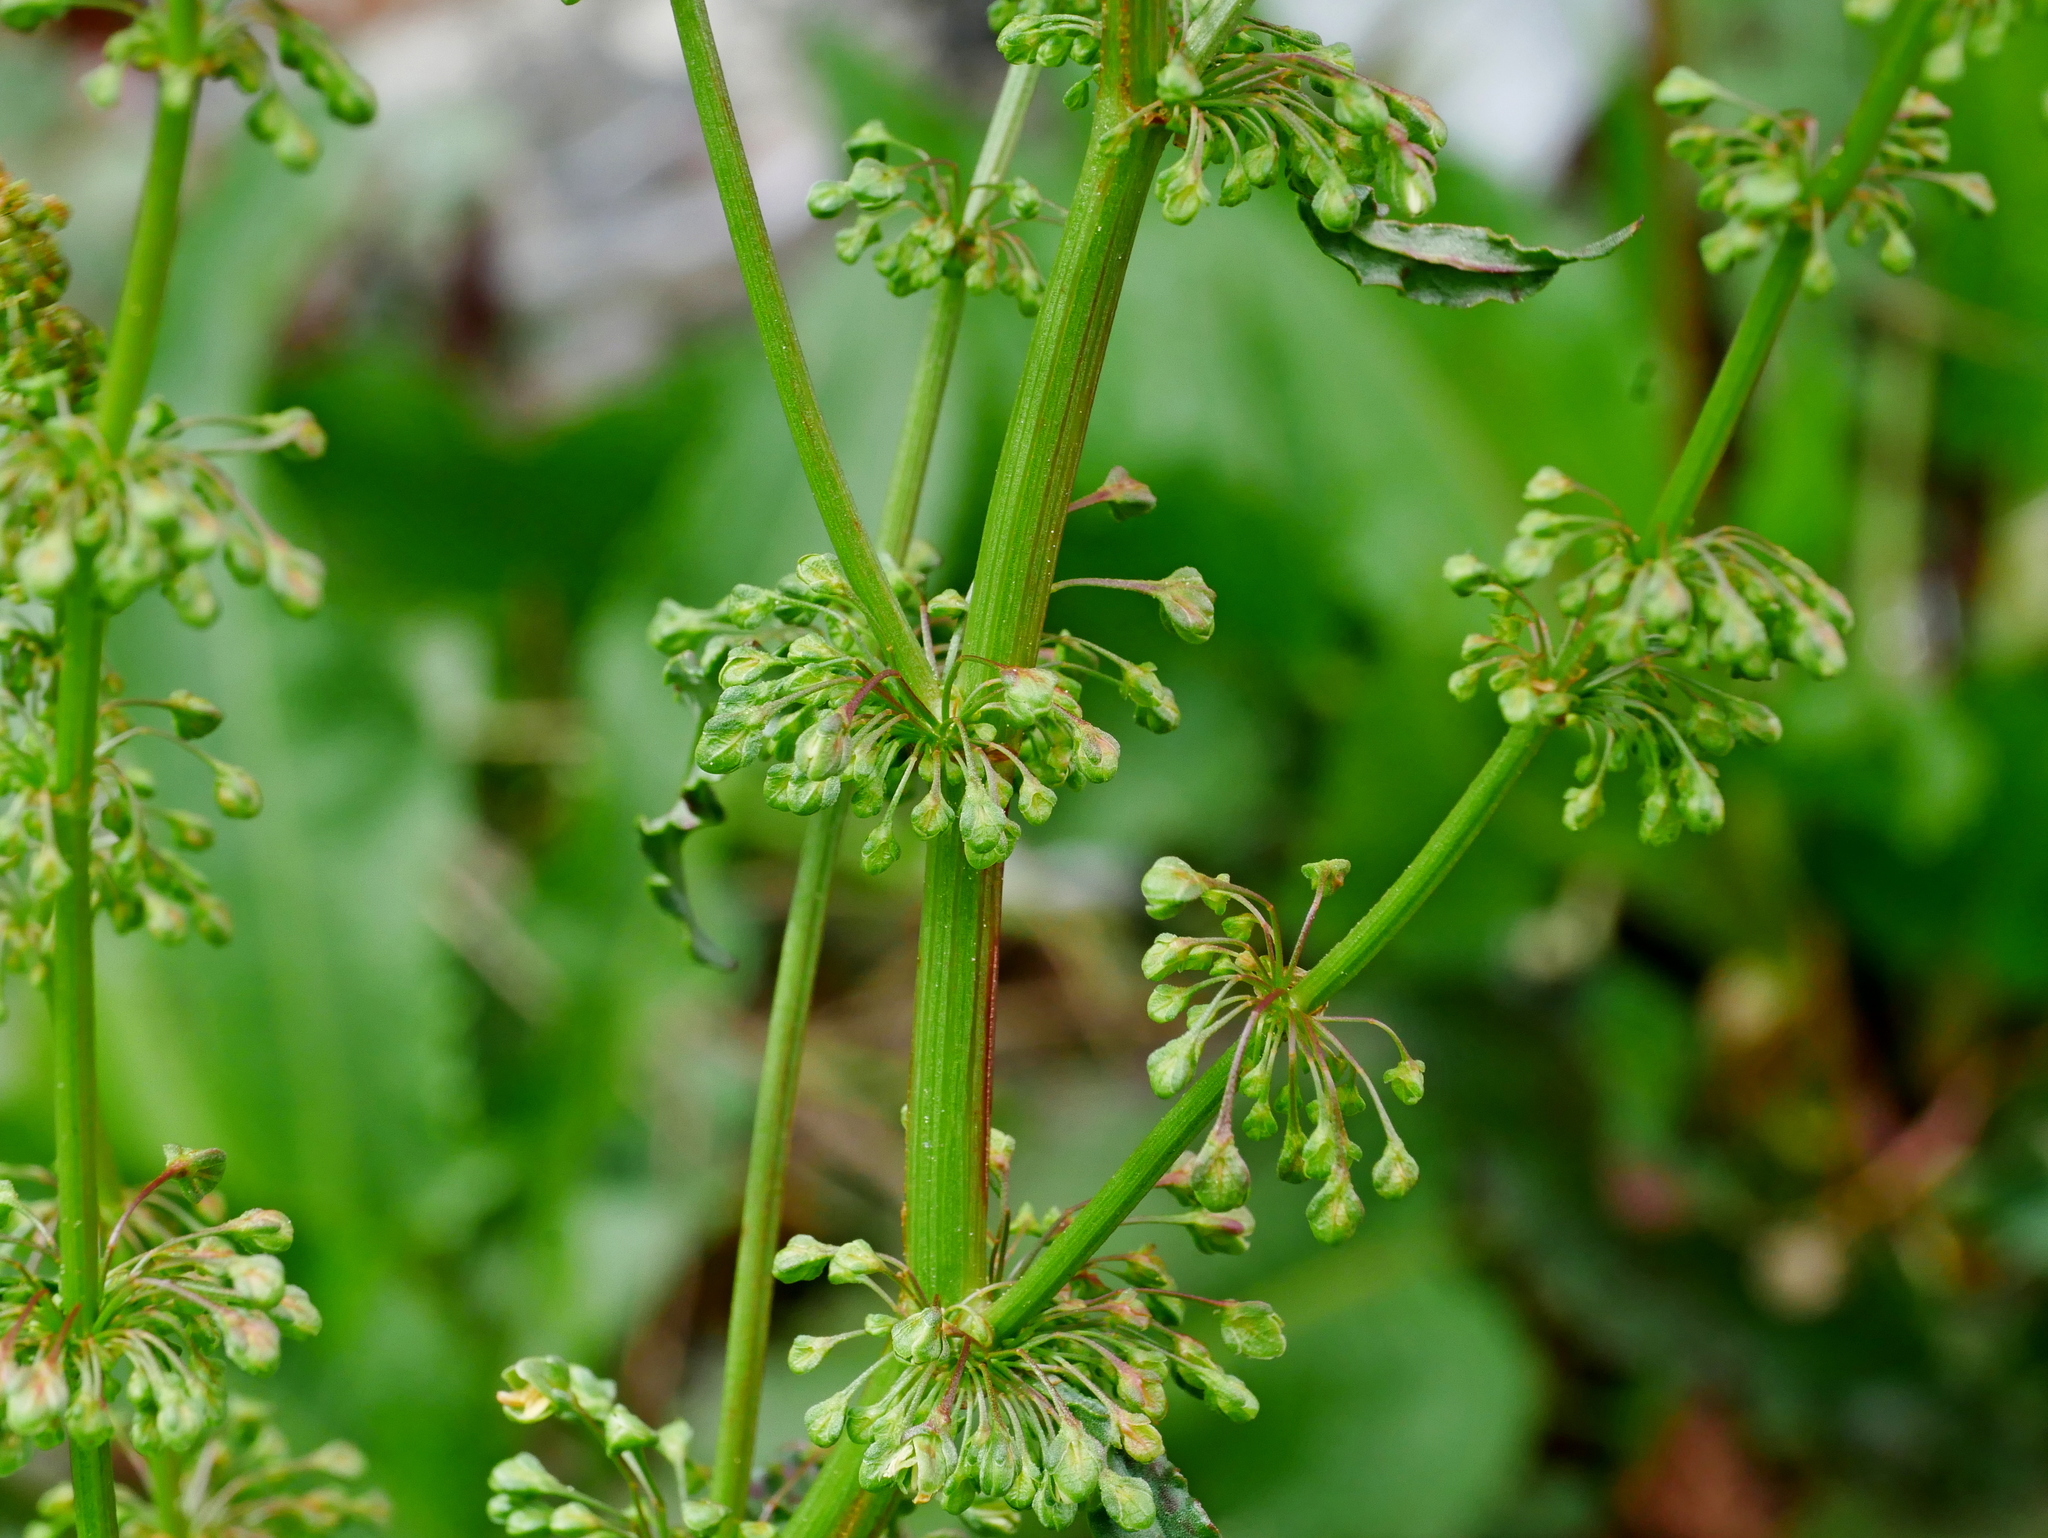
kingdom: Plantae
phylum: Tracheophyta
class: Magnoliopsida
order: Caryophyllales
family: Polygonaceae
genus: Rumex
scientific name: Rumex crispus
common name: Curled dock
